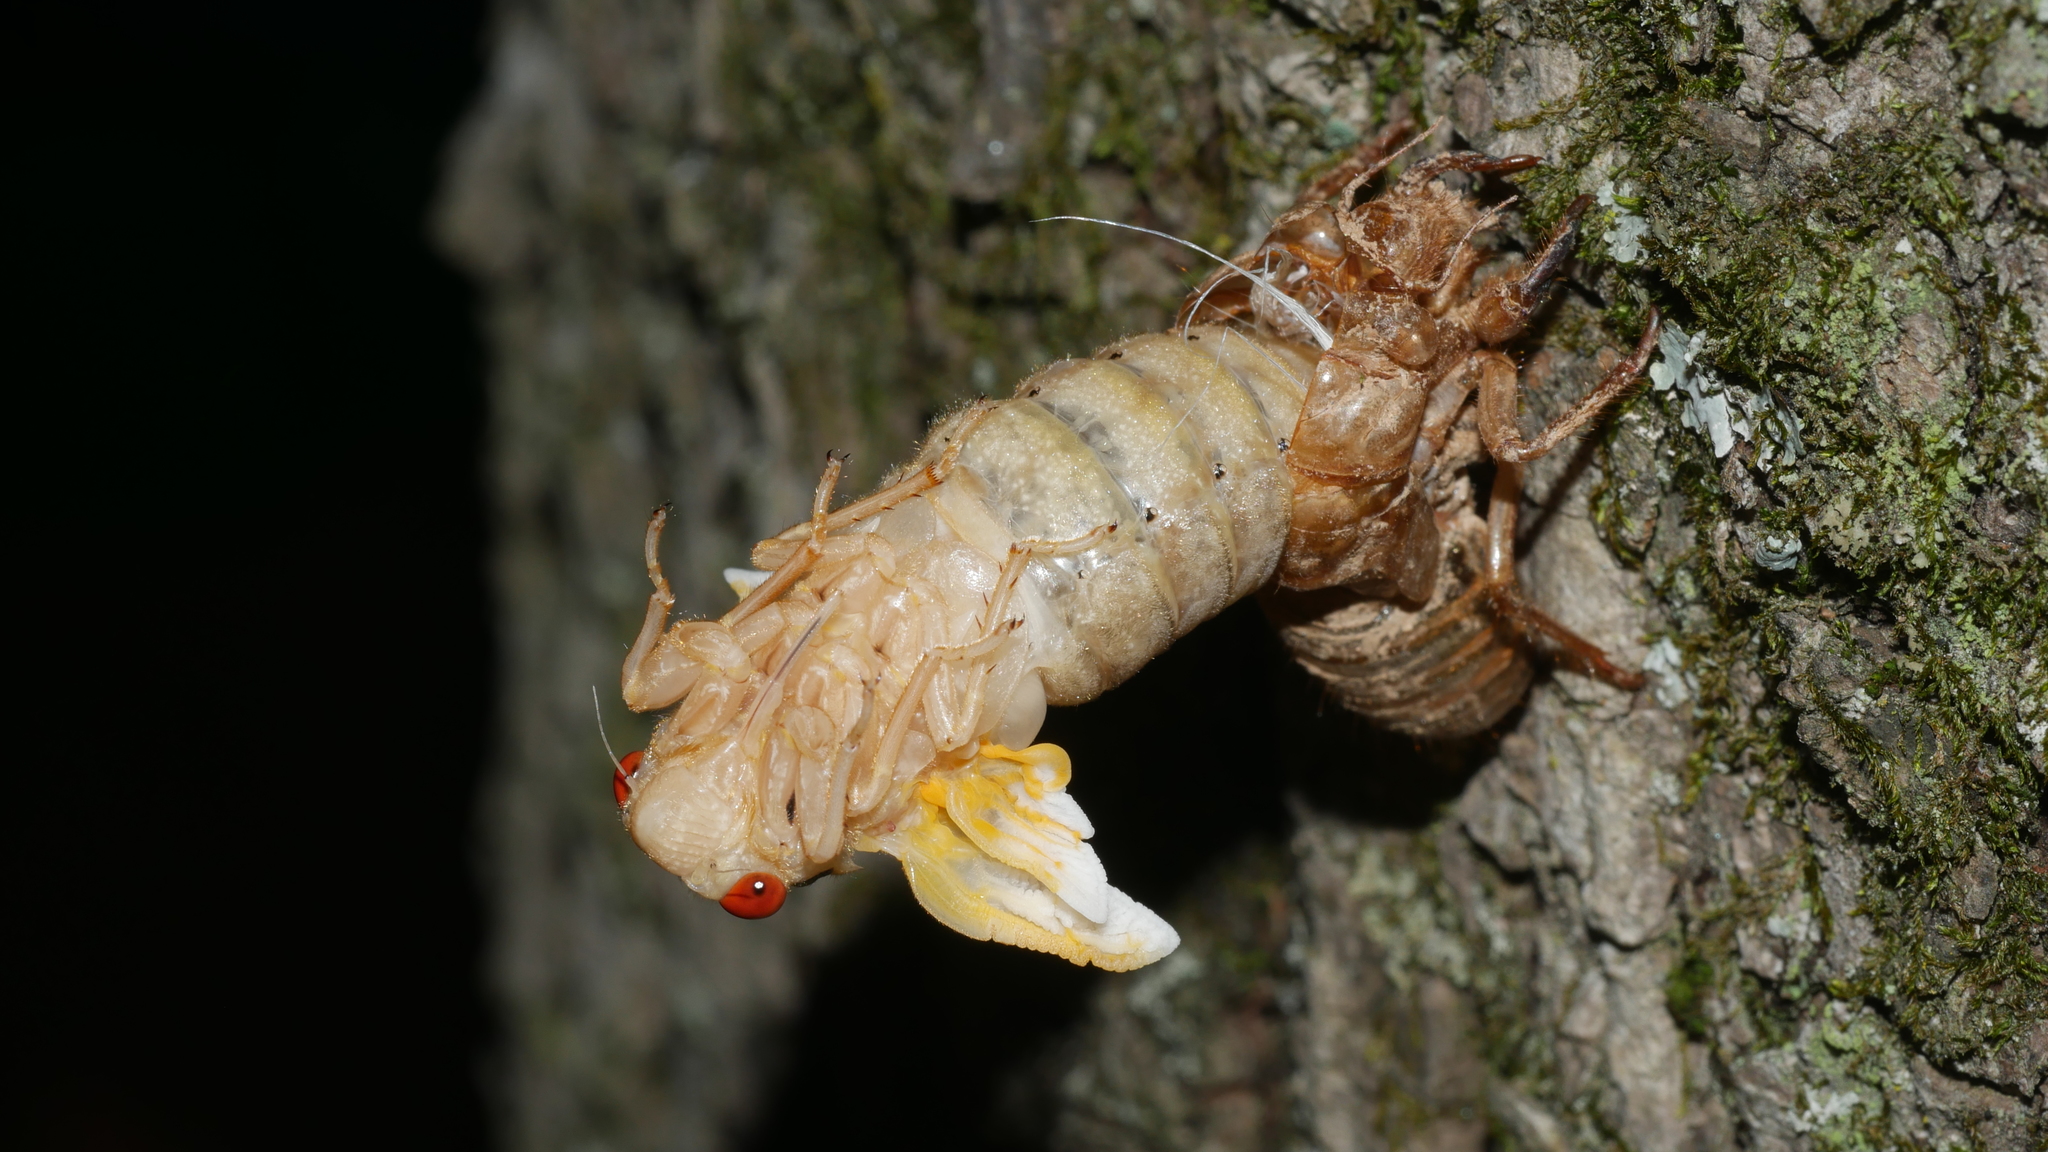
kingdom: Animalia
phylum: Arthropoda
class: Insecta
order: Hemiptera
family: Cicadidae
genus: Magicicada
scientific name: Magicicada
